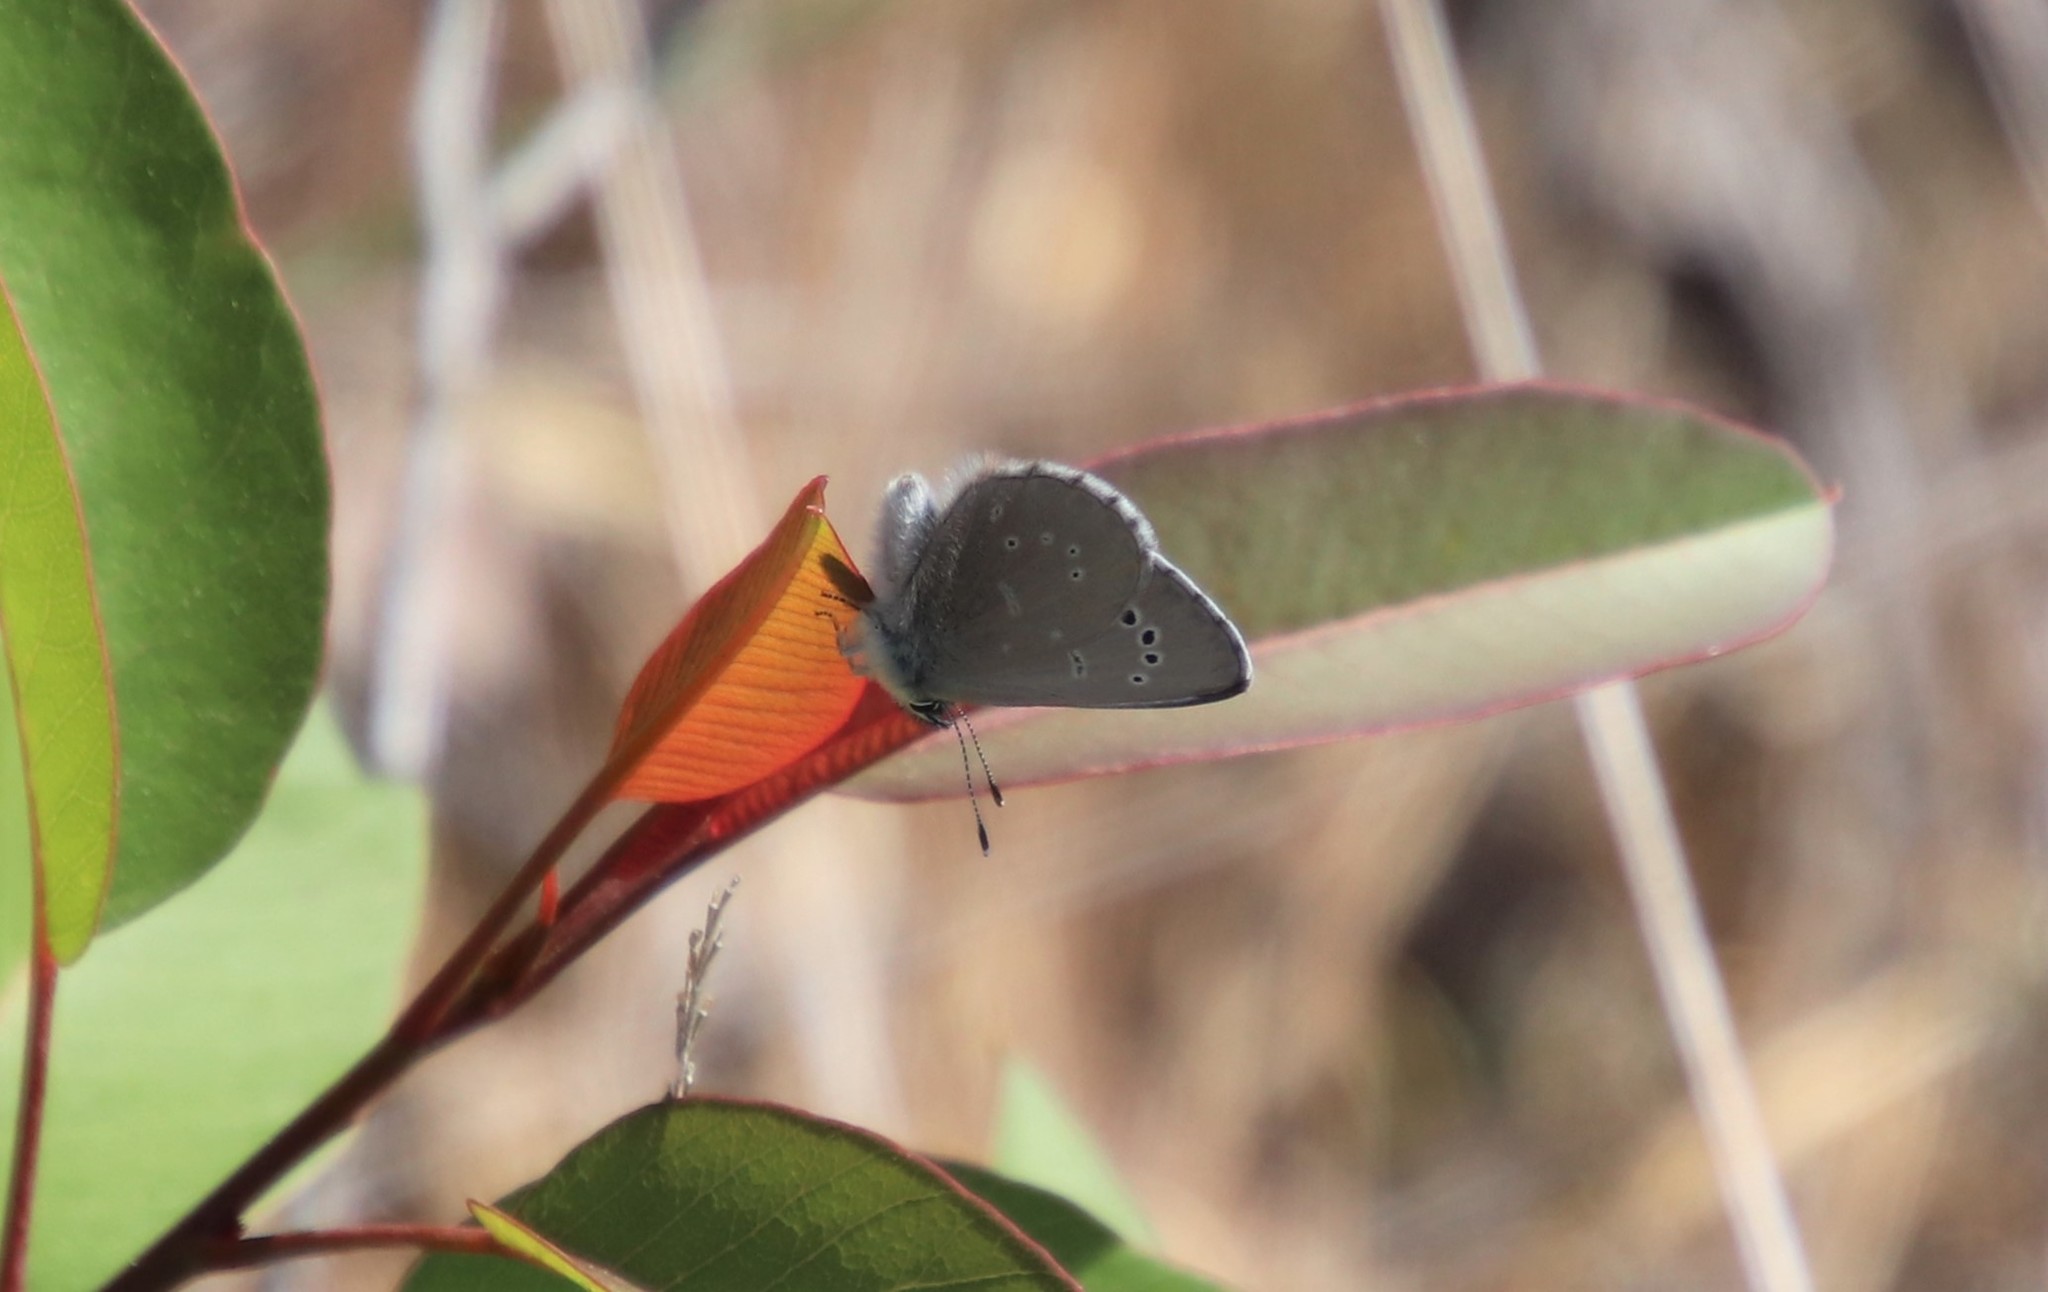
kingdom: Animalia
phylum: Arthropoda
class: Insecta
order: Lepidoptera
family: Lycaenidae
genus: Glaucopsyche
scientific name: Glaucopsyche lygdamus
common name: Silvery blue
